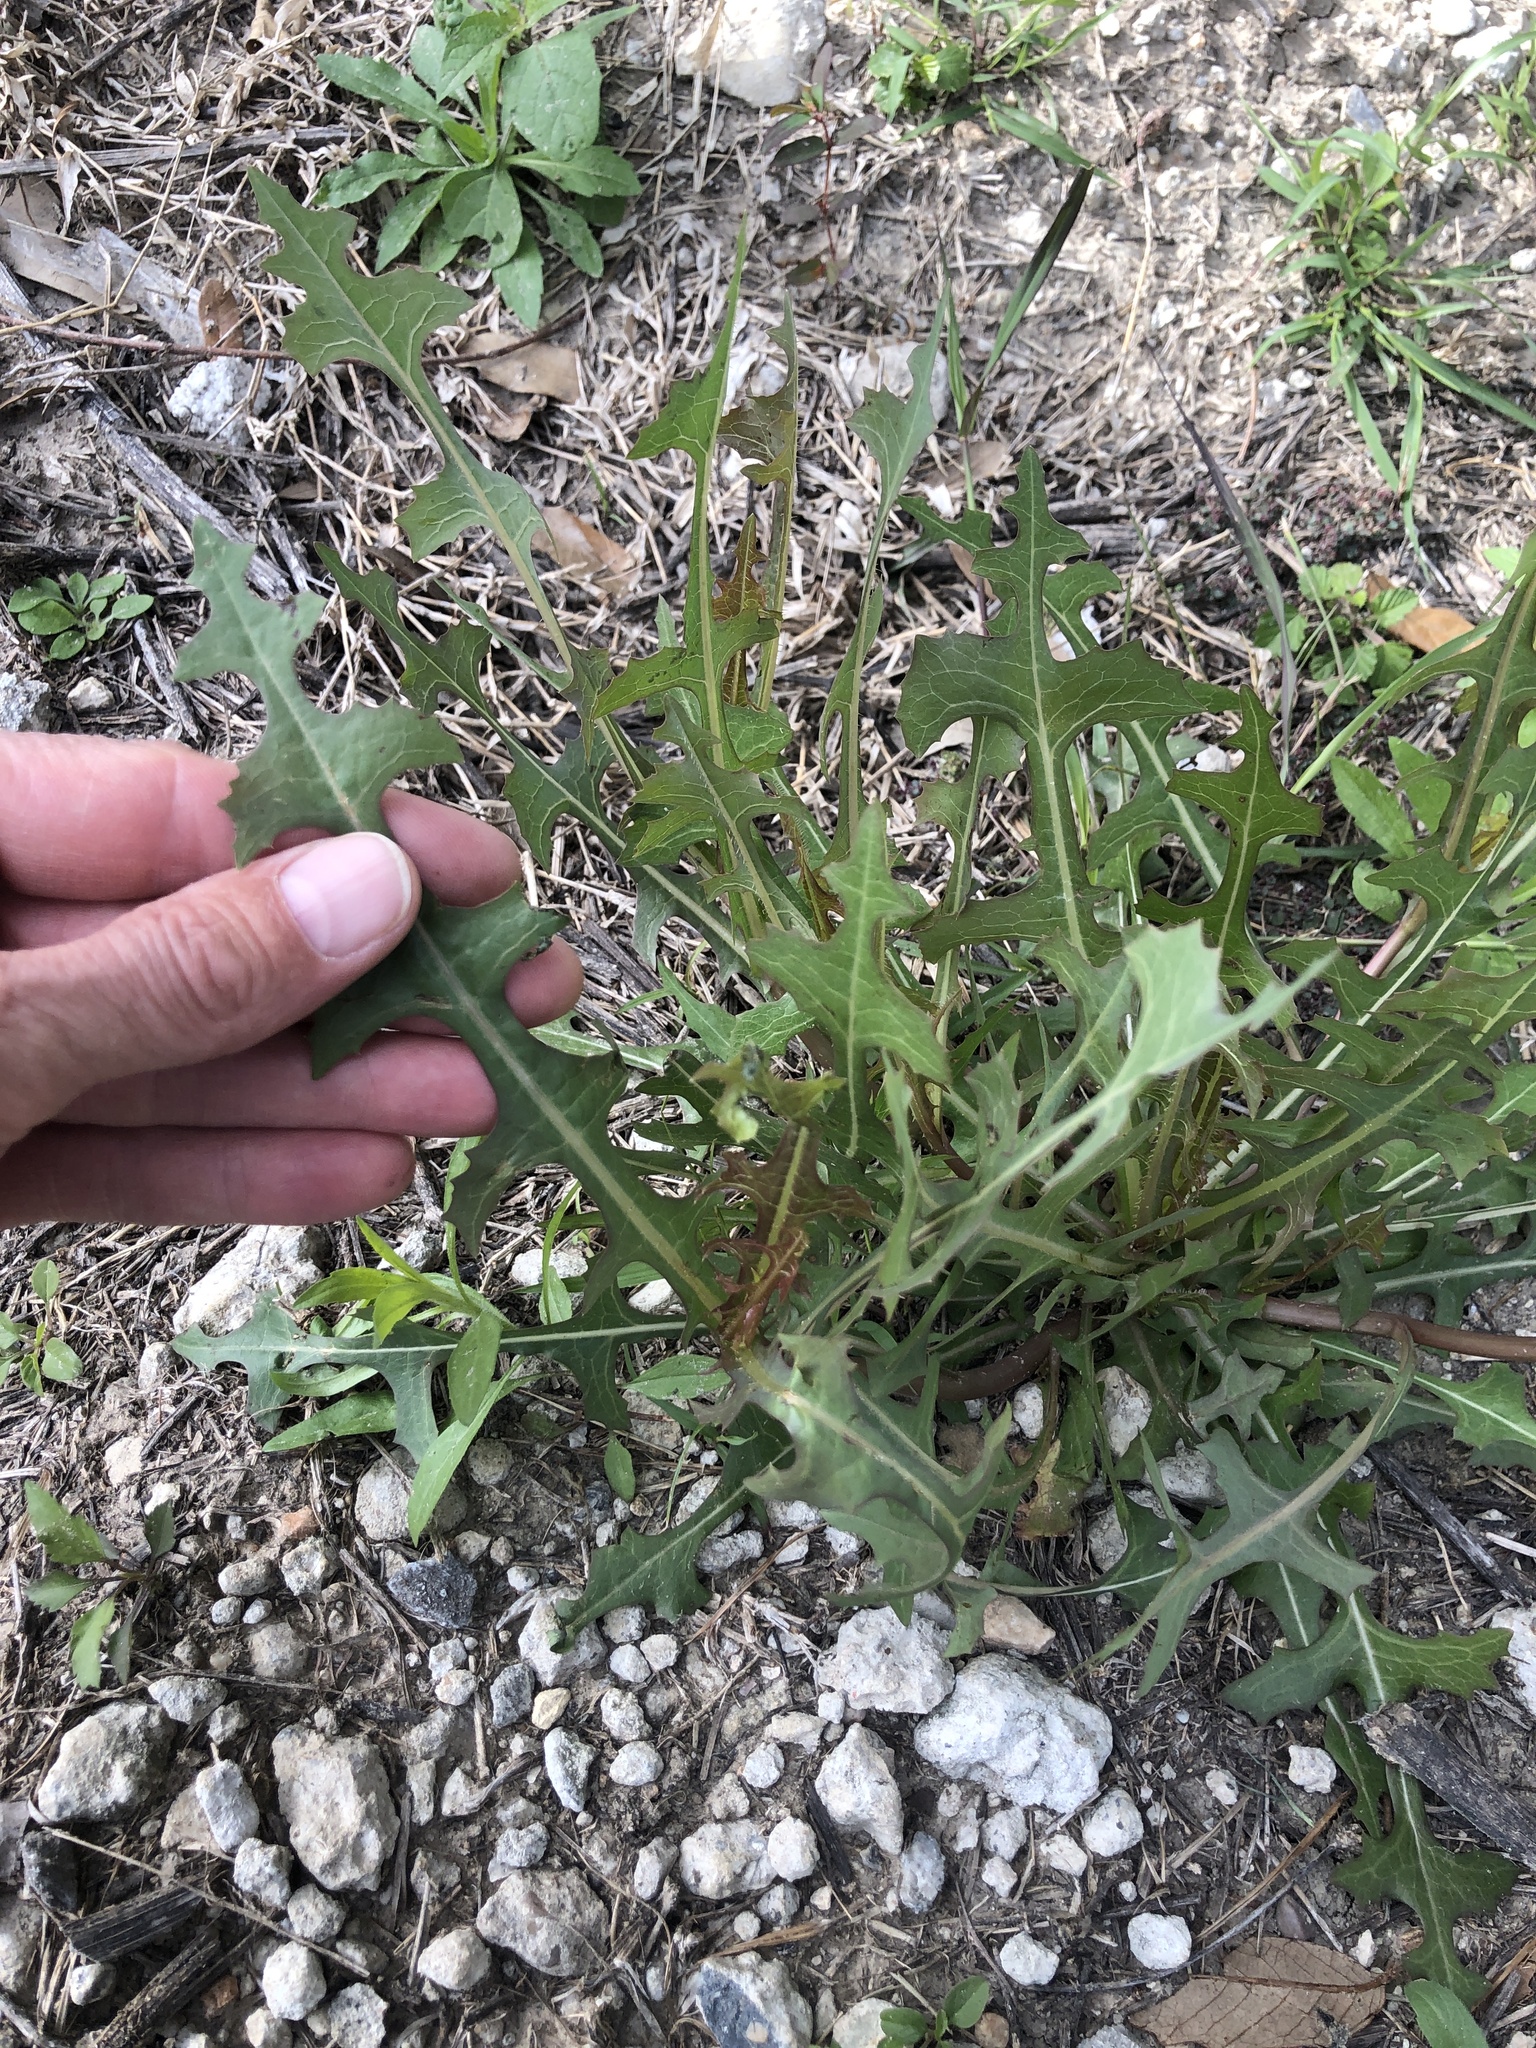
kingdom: Plantae
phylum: Tracheophyta
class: Magnoliopsida
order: Asterales
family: Asteraceae
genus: Lactuca
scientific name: Lactuca serriola
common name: Prickly lettuce
